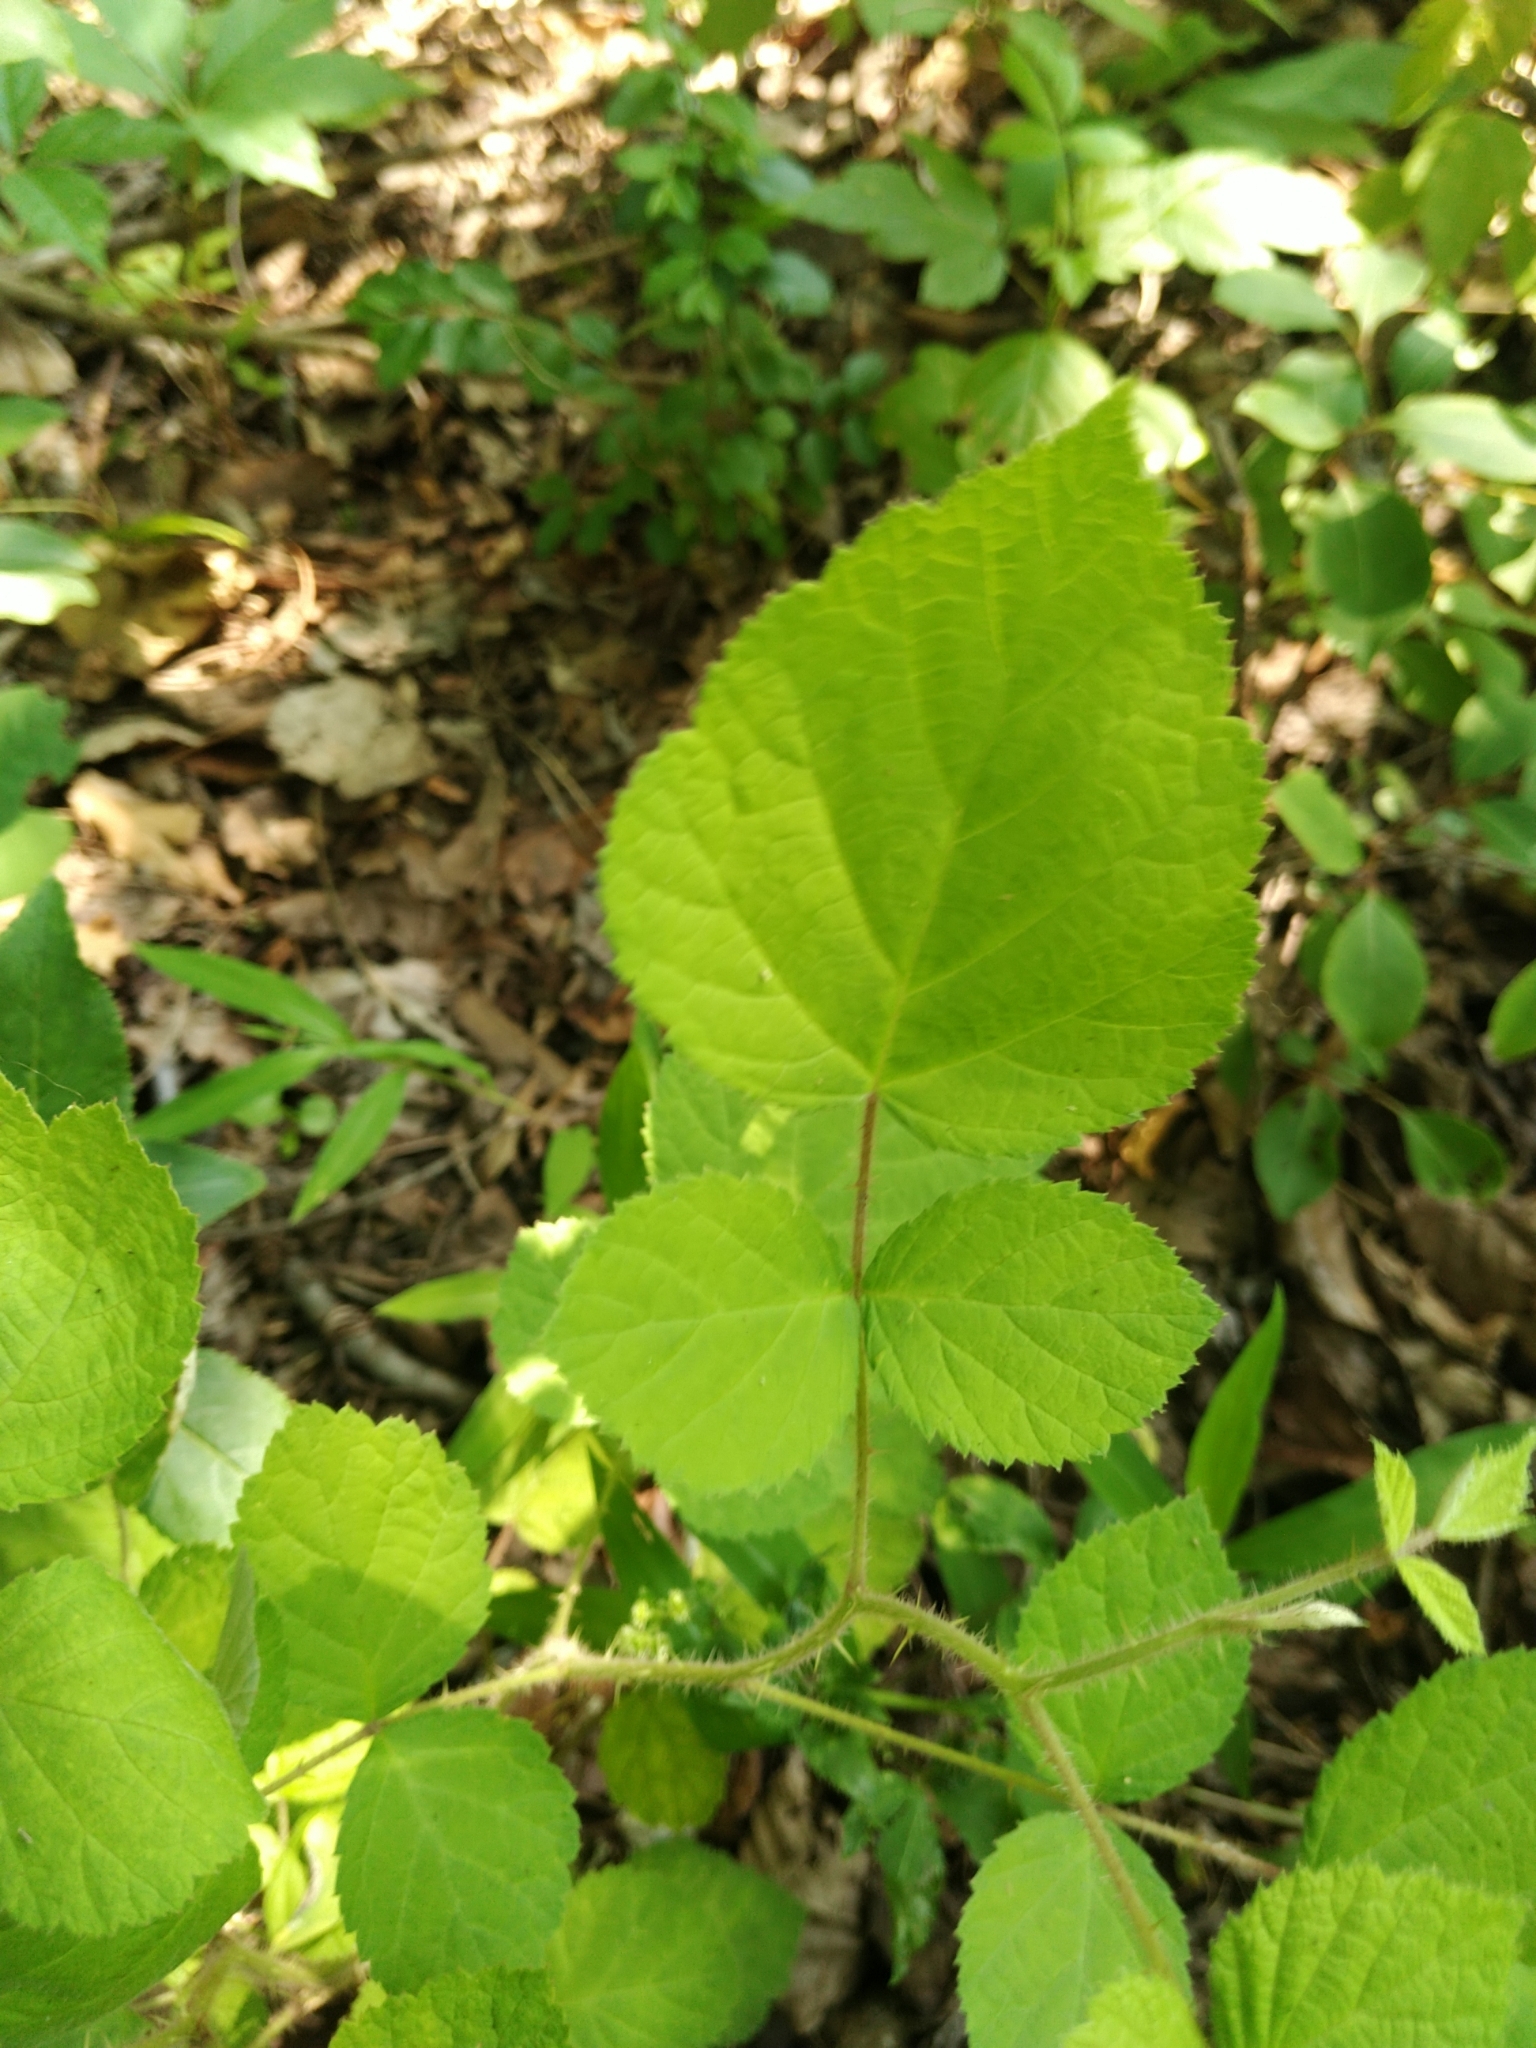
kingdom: Plantae
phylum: Tracheophyta
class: Magnoliopsida
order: Rosales
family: Rosaceae
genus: Rubus
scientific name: Rubus phoenicolasius
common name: Japanese wineberry
